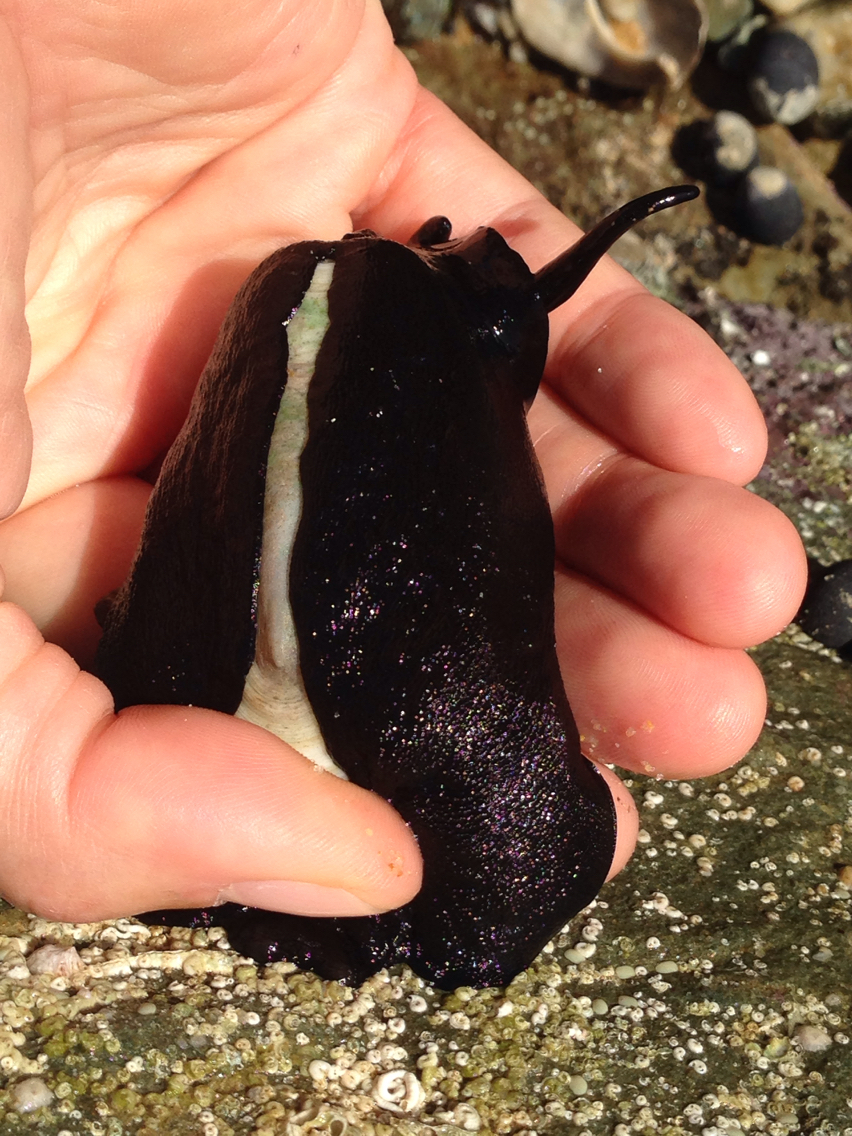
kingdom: Animalia
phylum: Mollusca
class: Gastropoda
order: Lepetellida
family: Fissurellidae
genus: Scutus
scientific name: Scutus antipodes
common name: Duckbill shell
